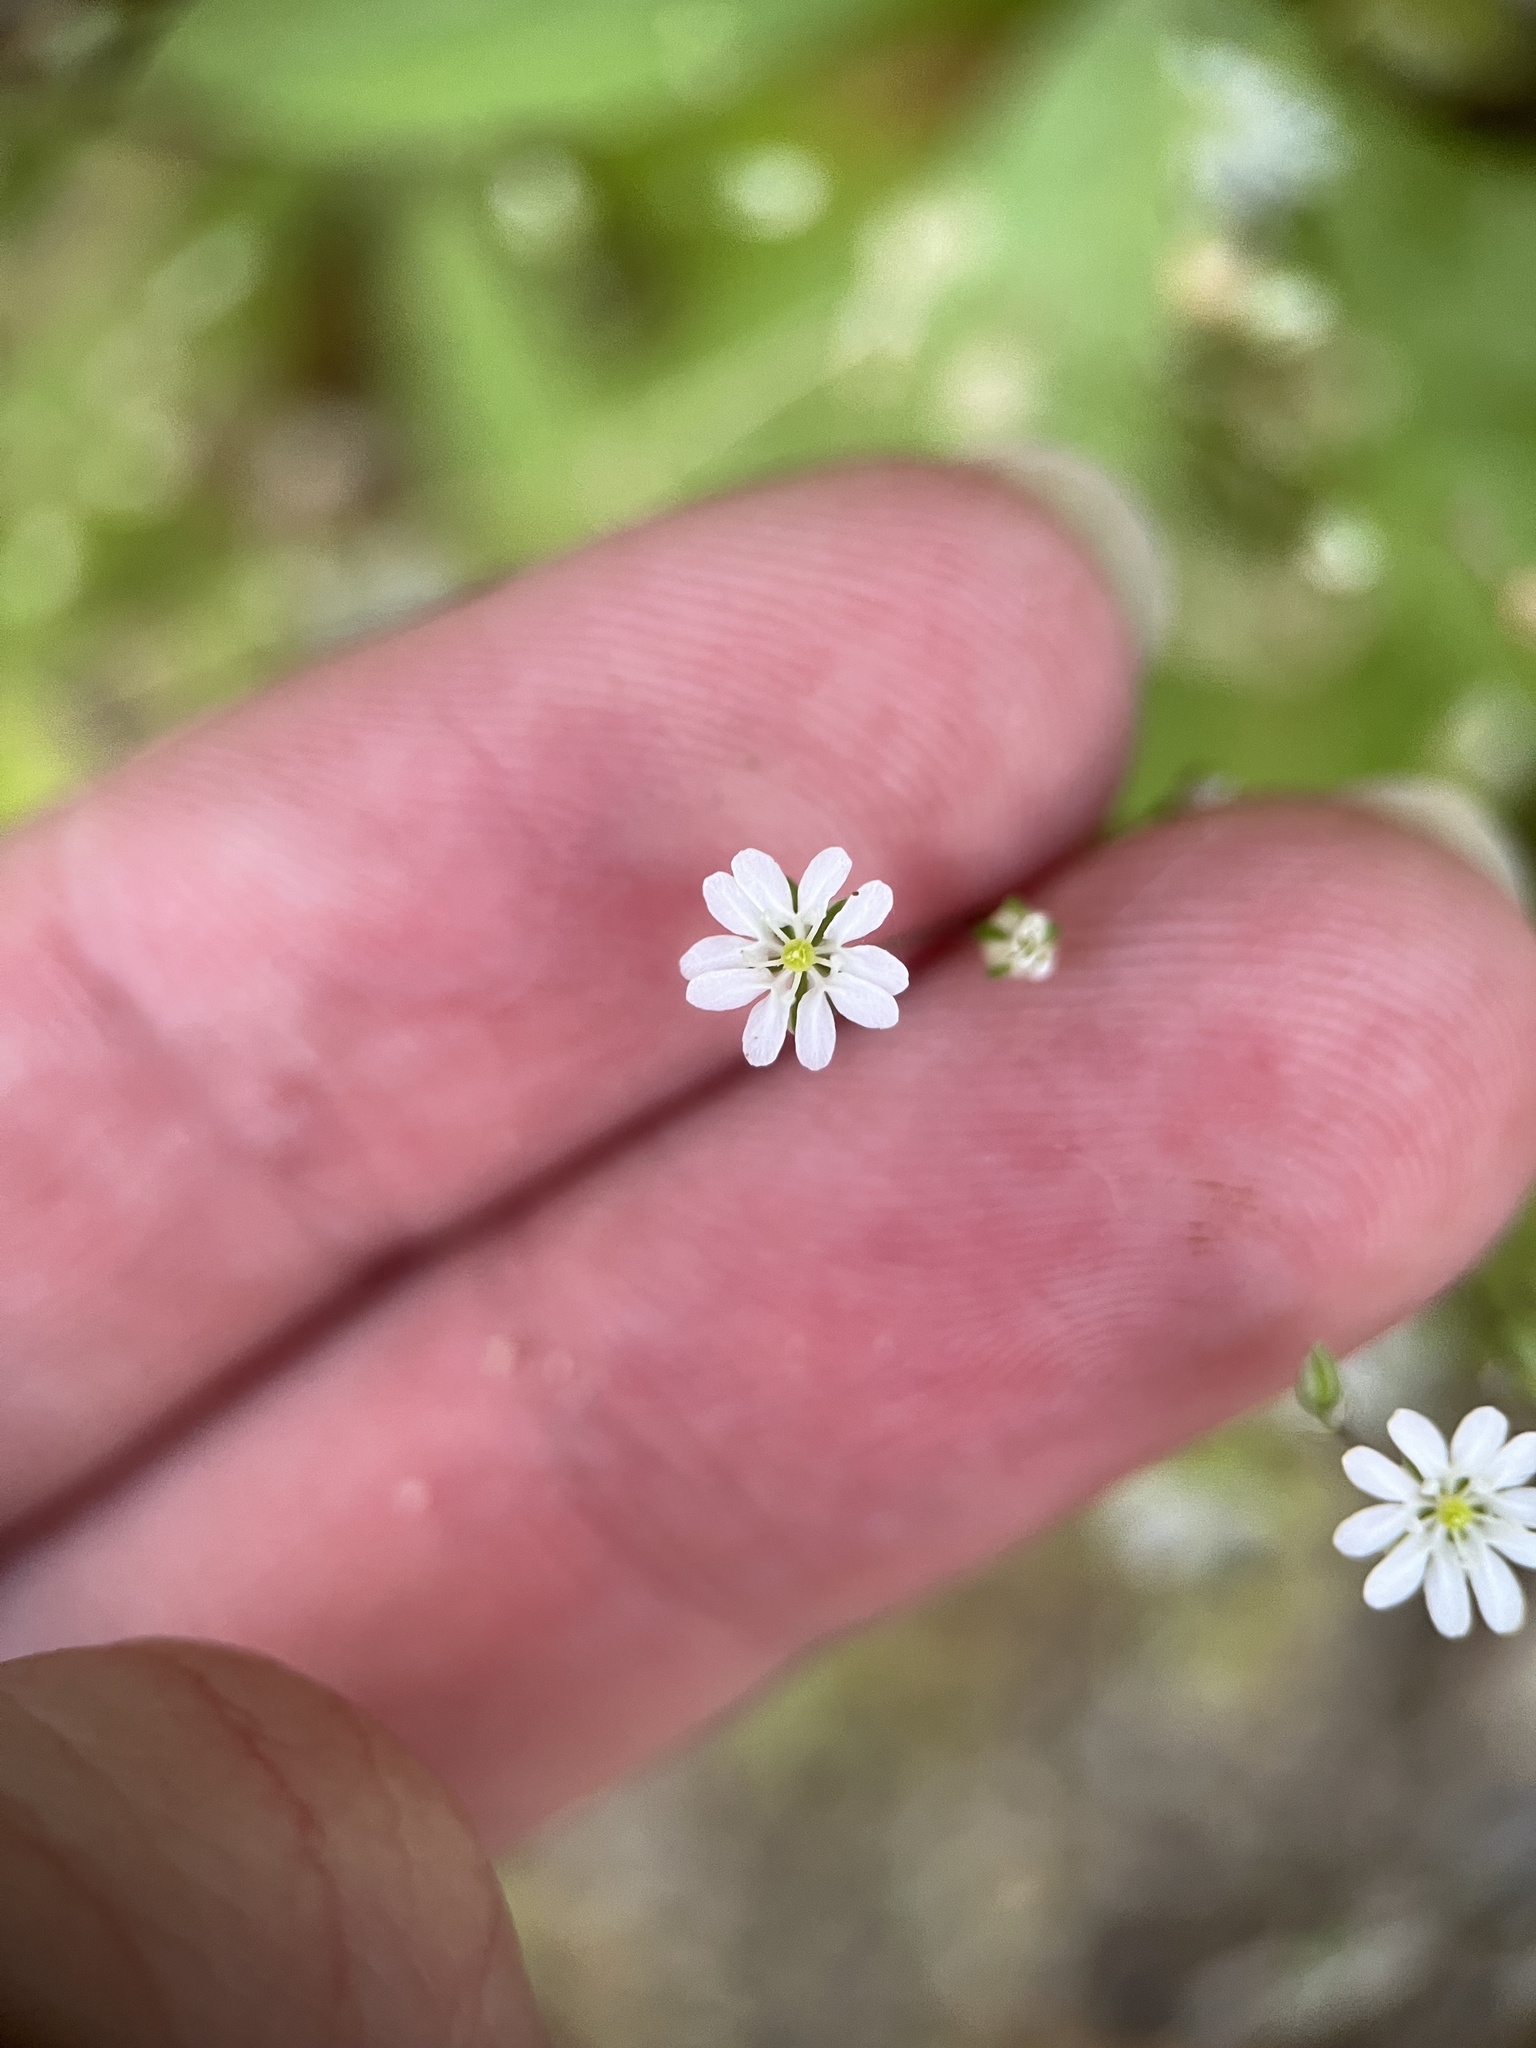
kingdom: Plantae
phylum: Tracheophyta
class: Magnoliopsida
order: Caryophyllales
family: Caryophyllaceae
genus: Drymaria
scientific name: Drymaria gracilis
